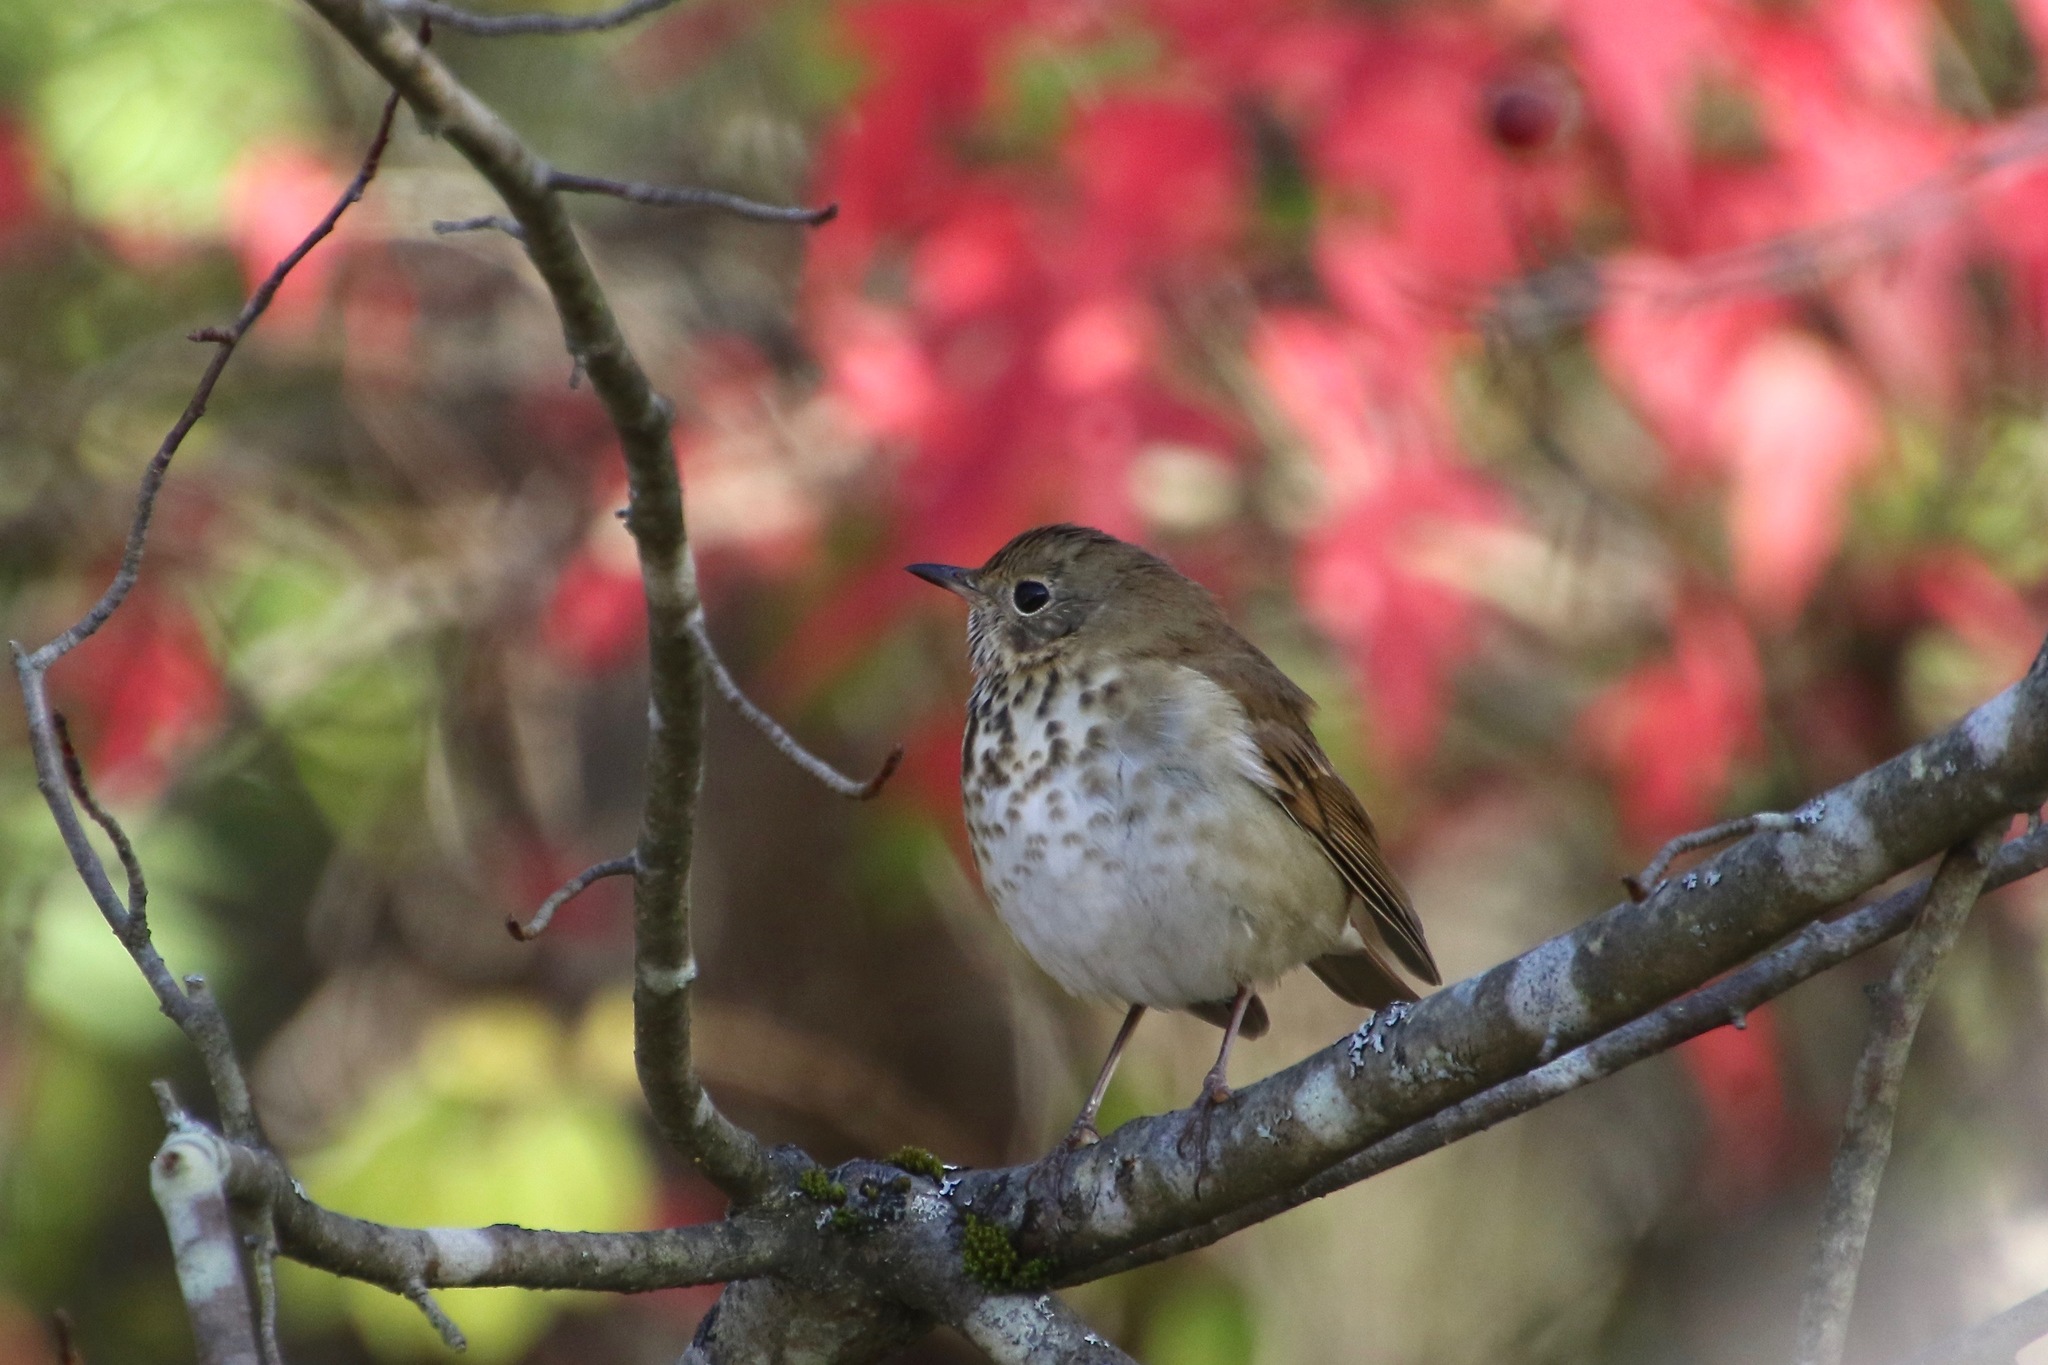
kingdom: Animalia
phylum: Chordata
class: Aves
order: Passeriformes
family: Turdidae
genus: Catharus
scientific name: Catharus guttatus
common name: Hermit thrush
